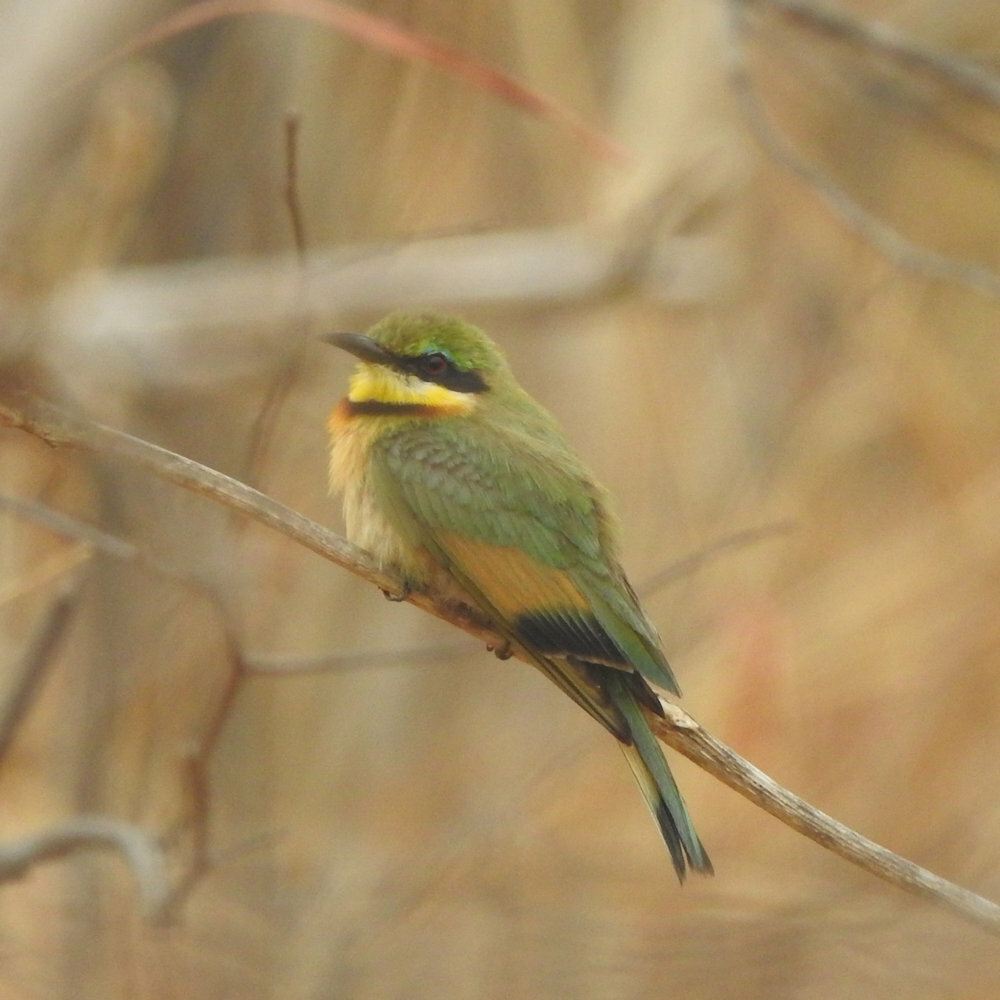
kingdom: Animalia
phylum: Chordata
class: Aves
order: Coraciiformes
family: Meropidae
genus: Merops
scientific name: Merops pusillus
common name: Little bee-eater
